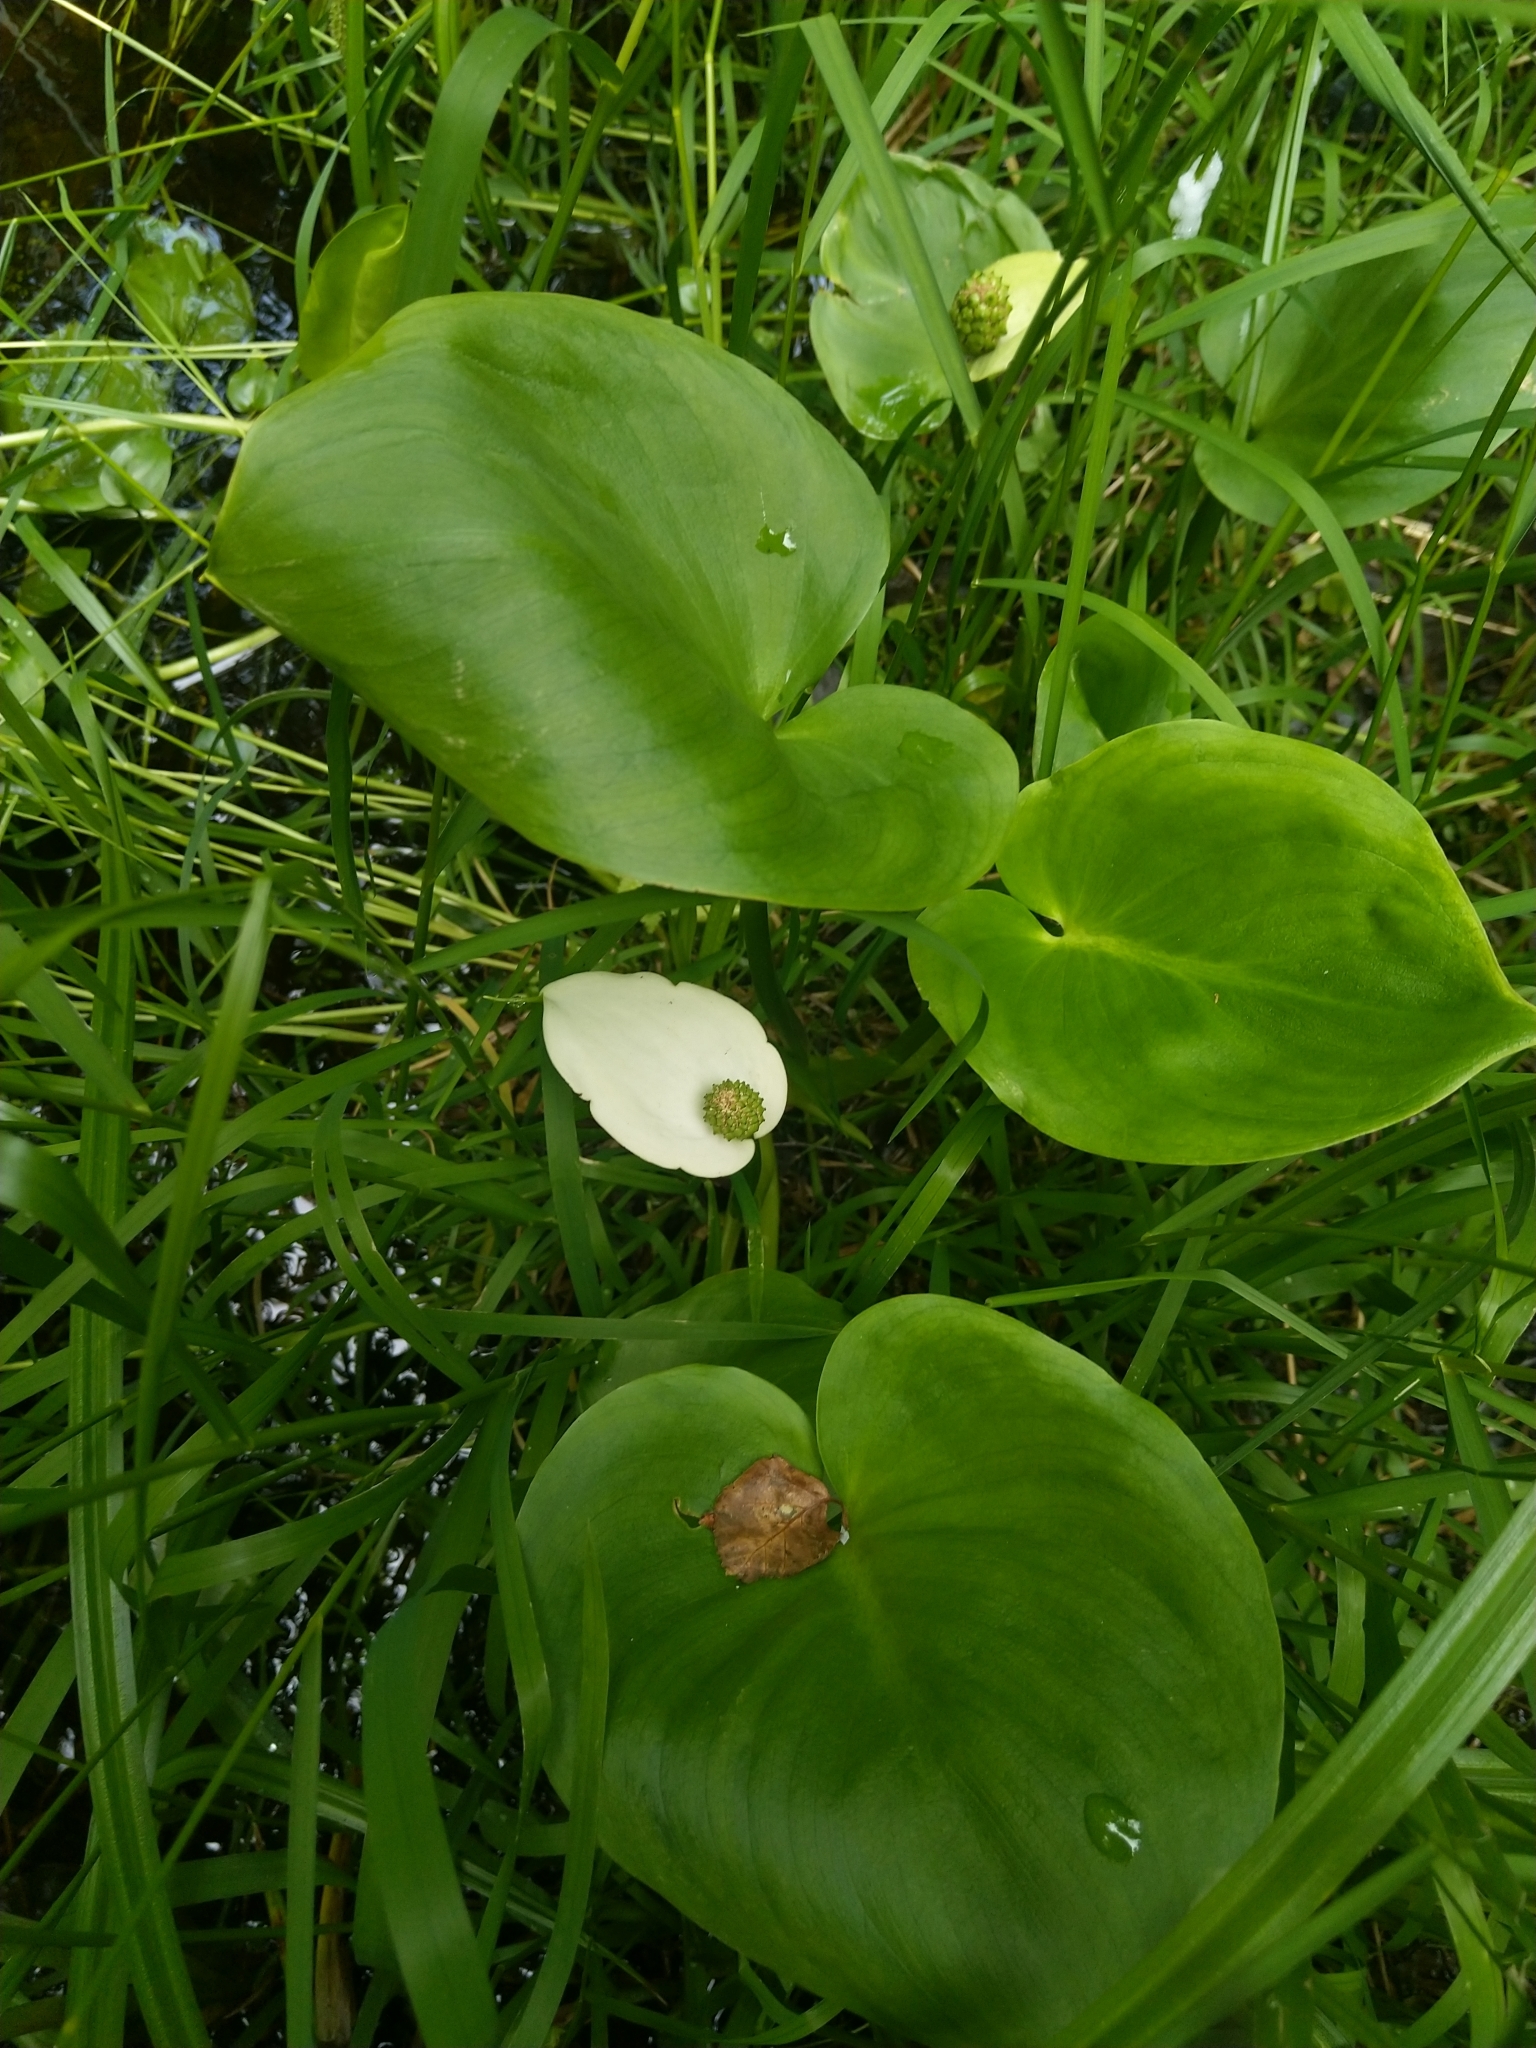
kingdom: Plantae
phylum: Tracheophyta
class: Liliopsida
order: Alismatales
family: Araceae
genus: Calla
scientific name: Calla palustris
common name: Bog arum
